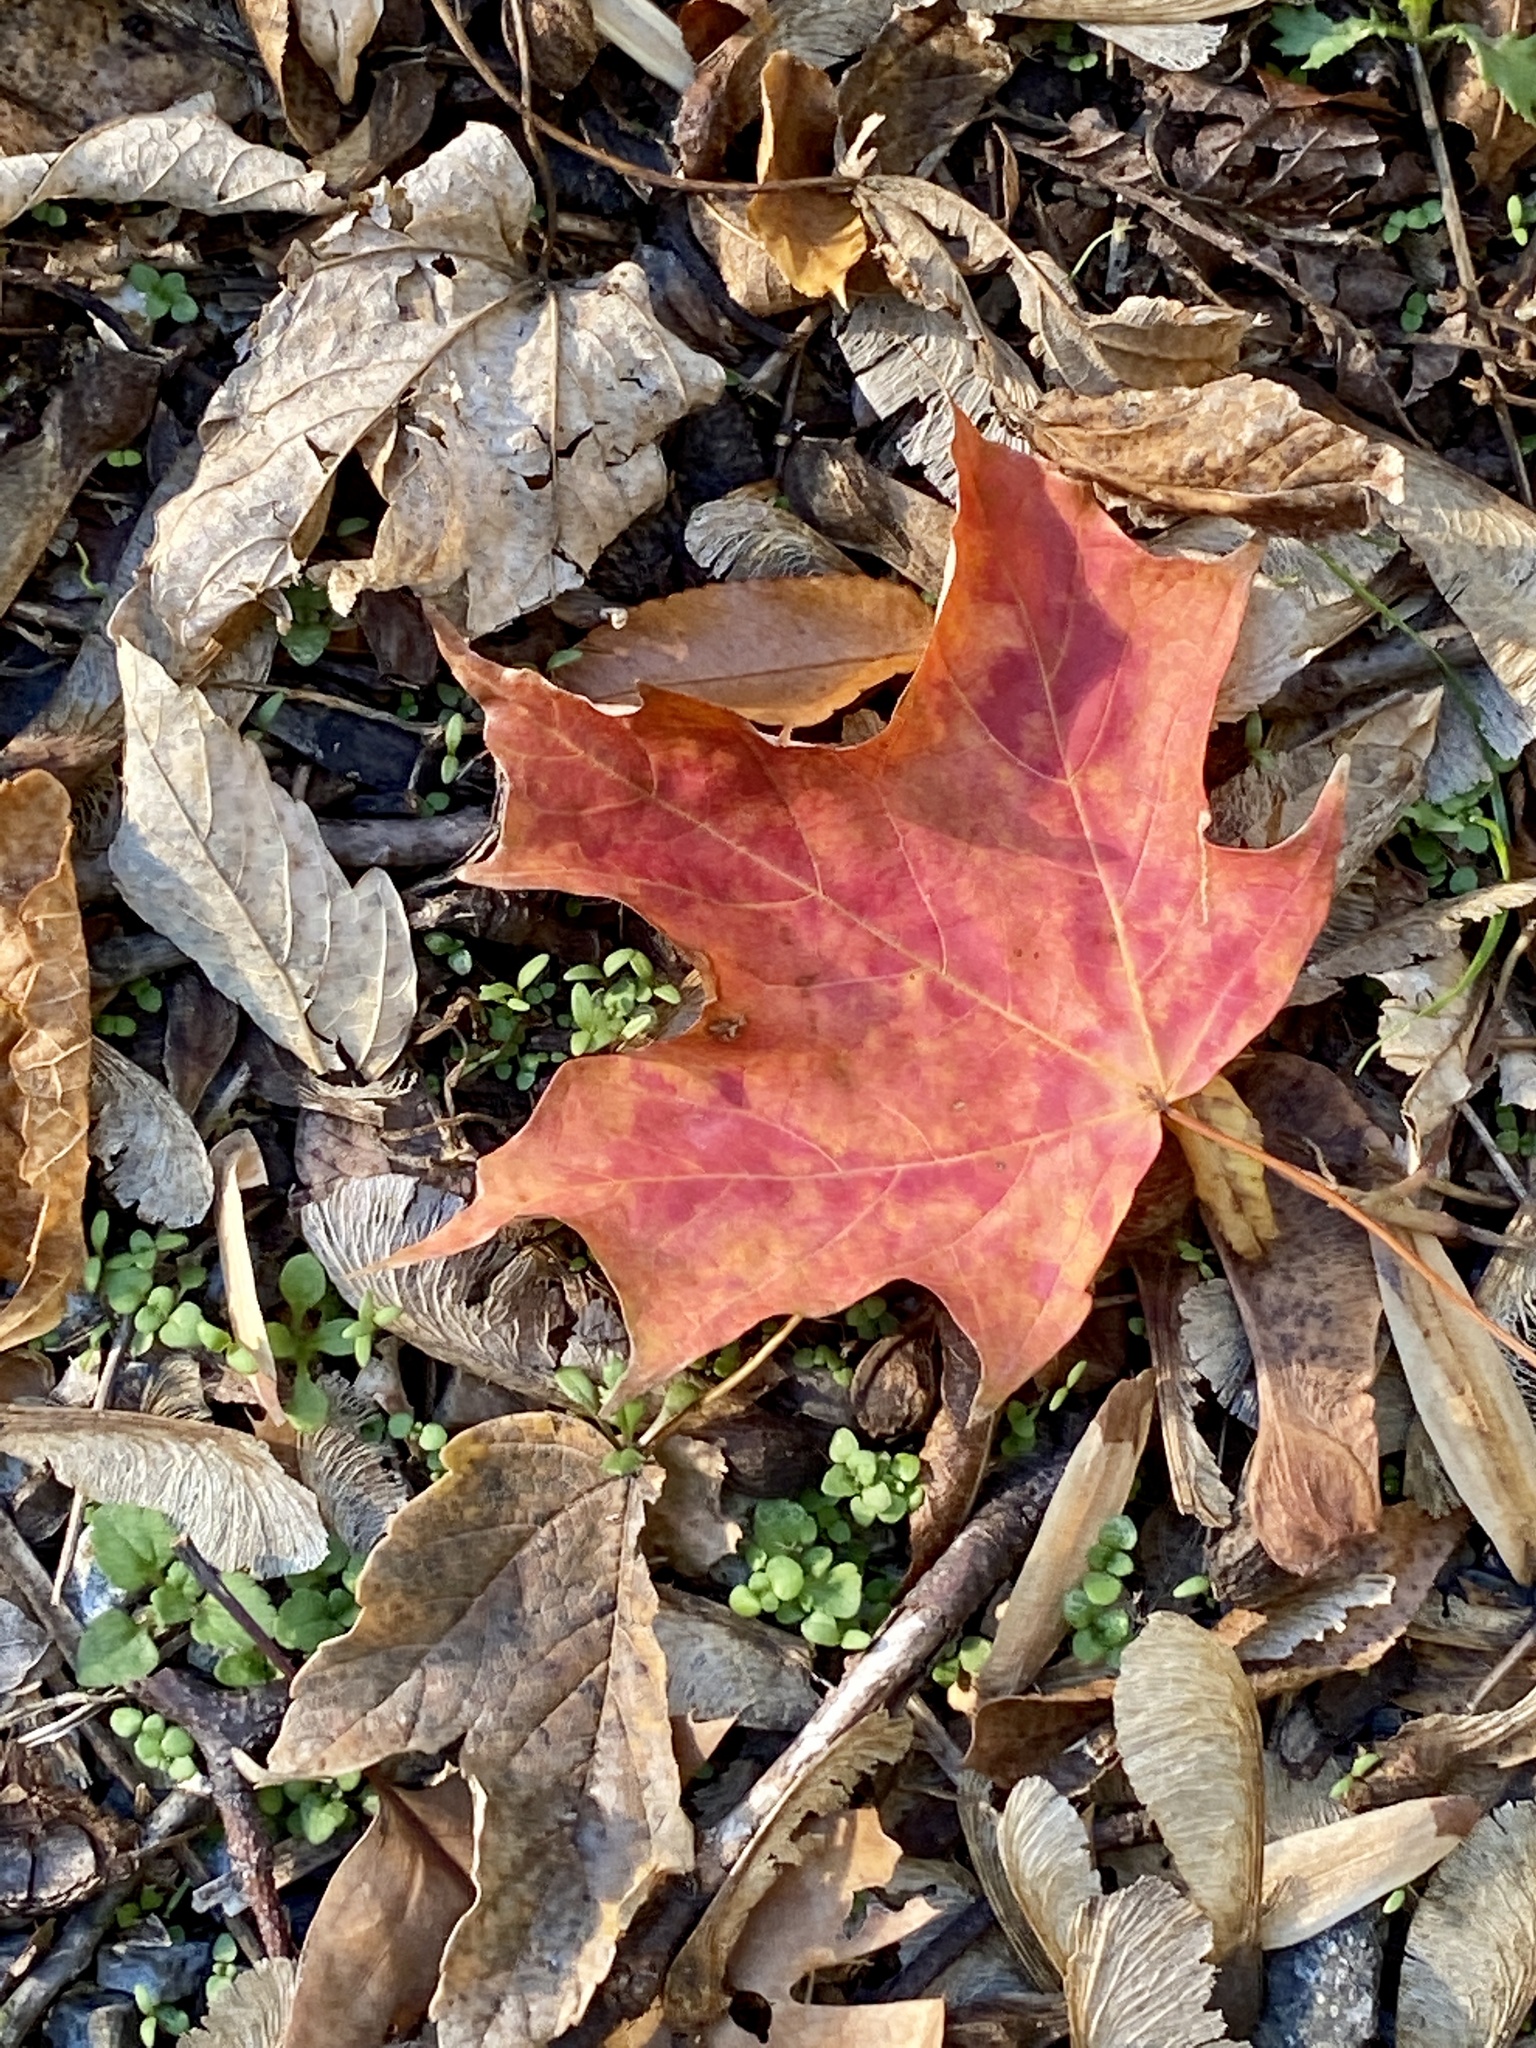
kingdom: Plantae
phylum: Tracheophyta
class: Magnoliopsida
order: Sapindales
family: Sapindaceae
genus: Acer
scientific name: Acer saccharum
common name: Sugar maple
